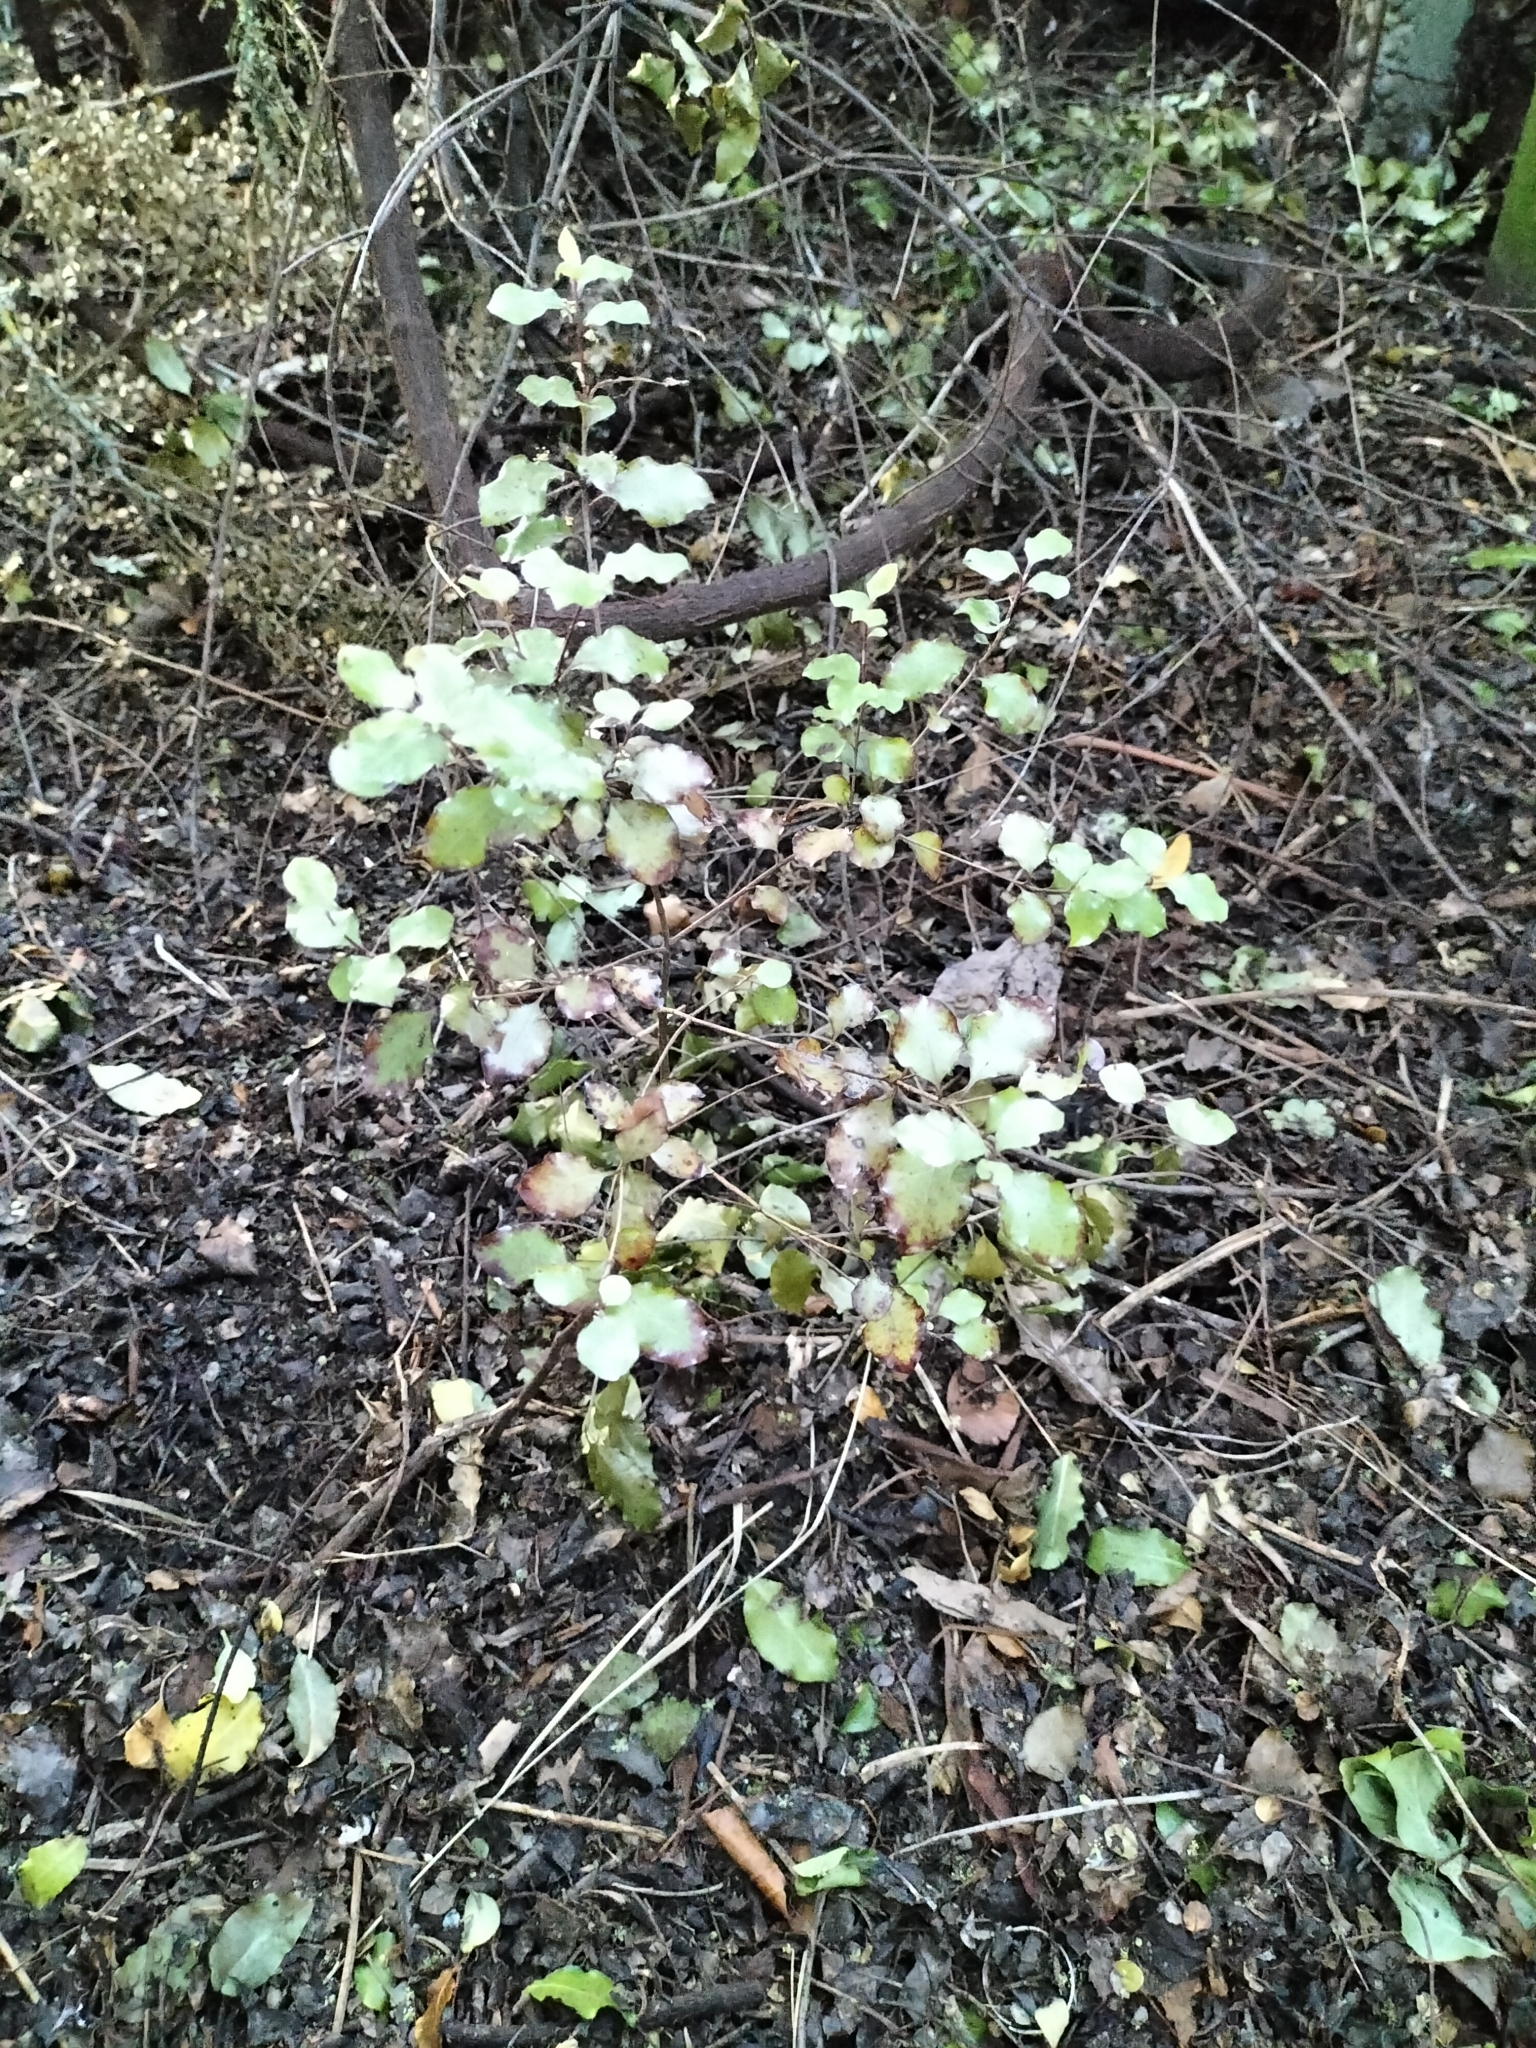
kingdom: Plantae
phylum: Tracheophyta
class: Magnoliopsida
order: Apiales
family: Pittosporaceae
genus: Pittosporum
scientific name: Pittosporum tenuifolium
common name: Kohuhu
